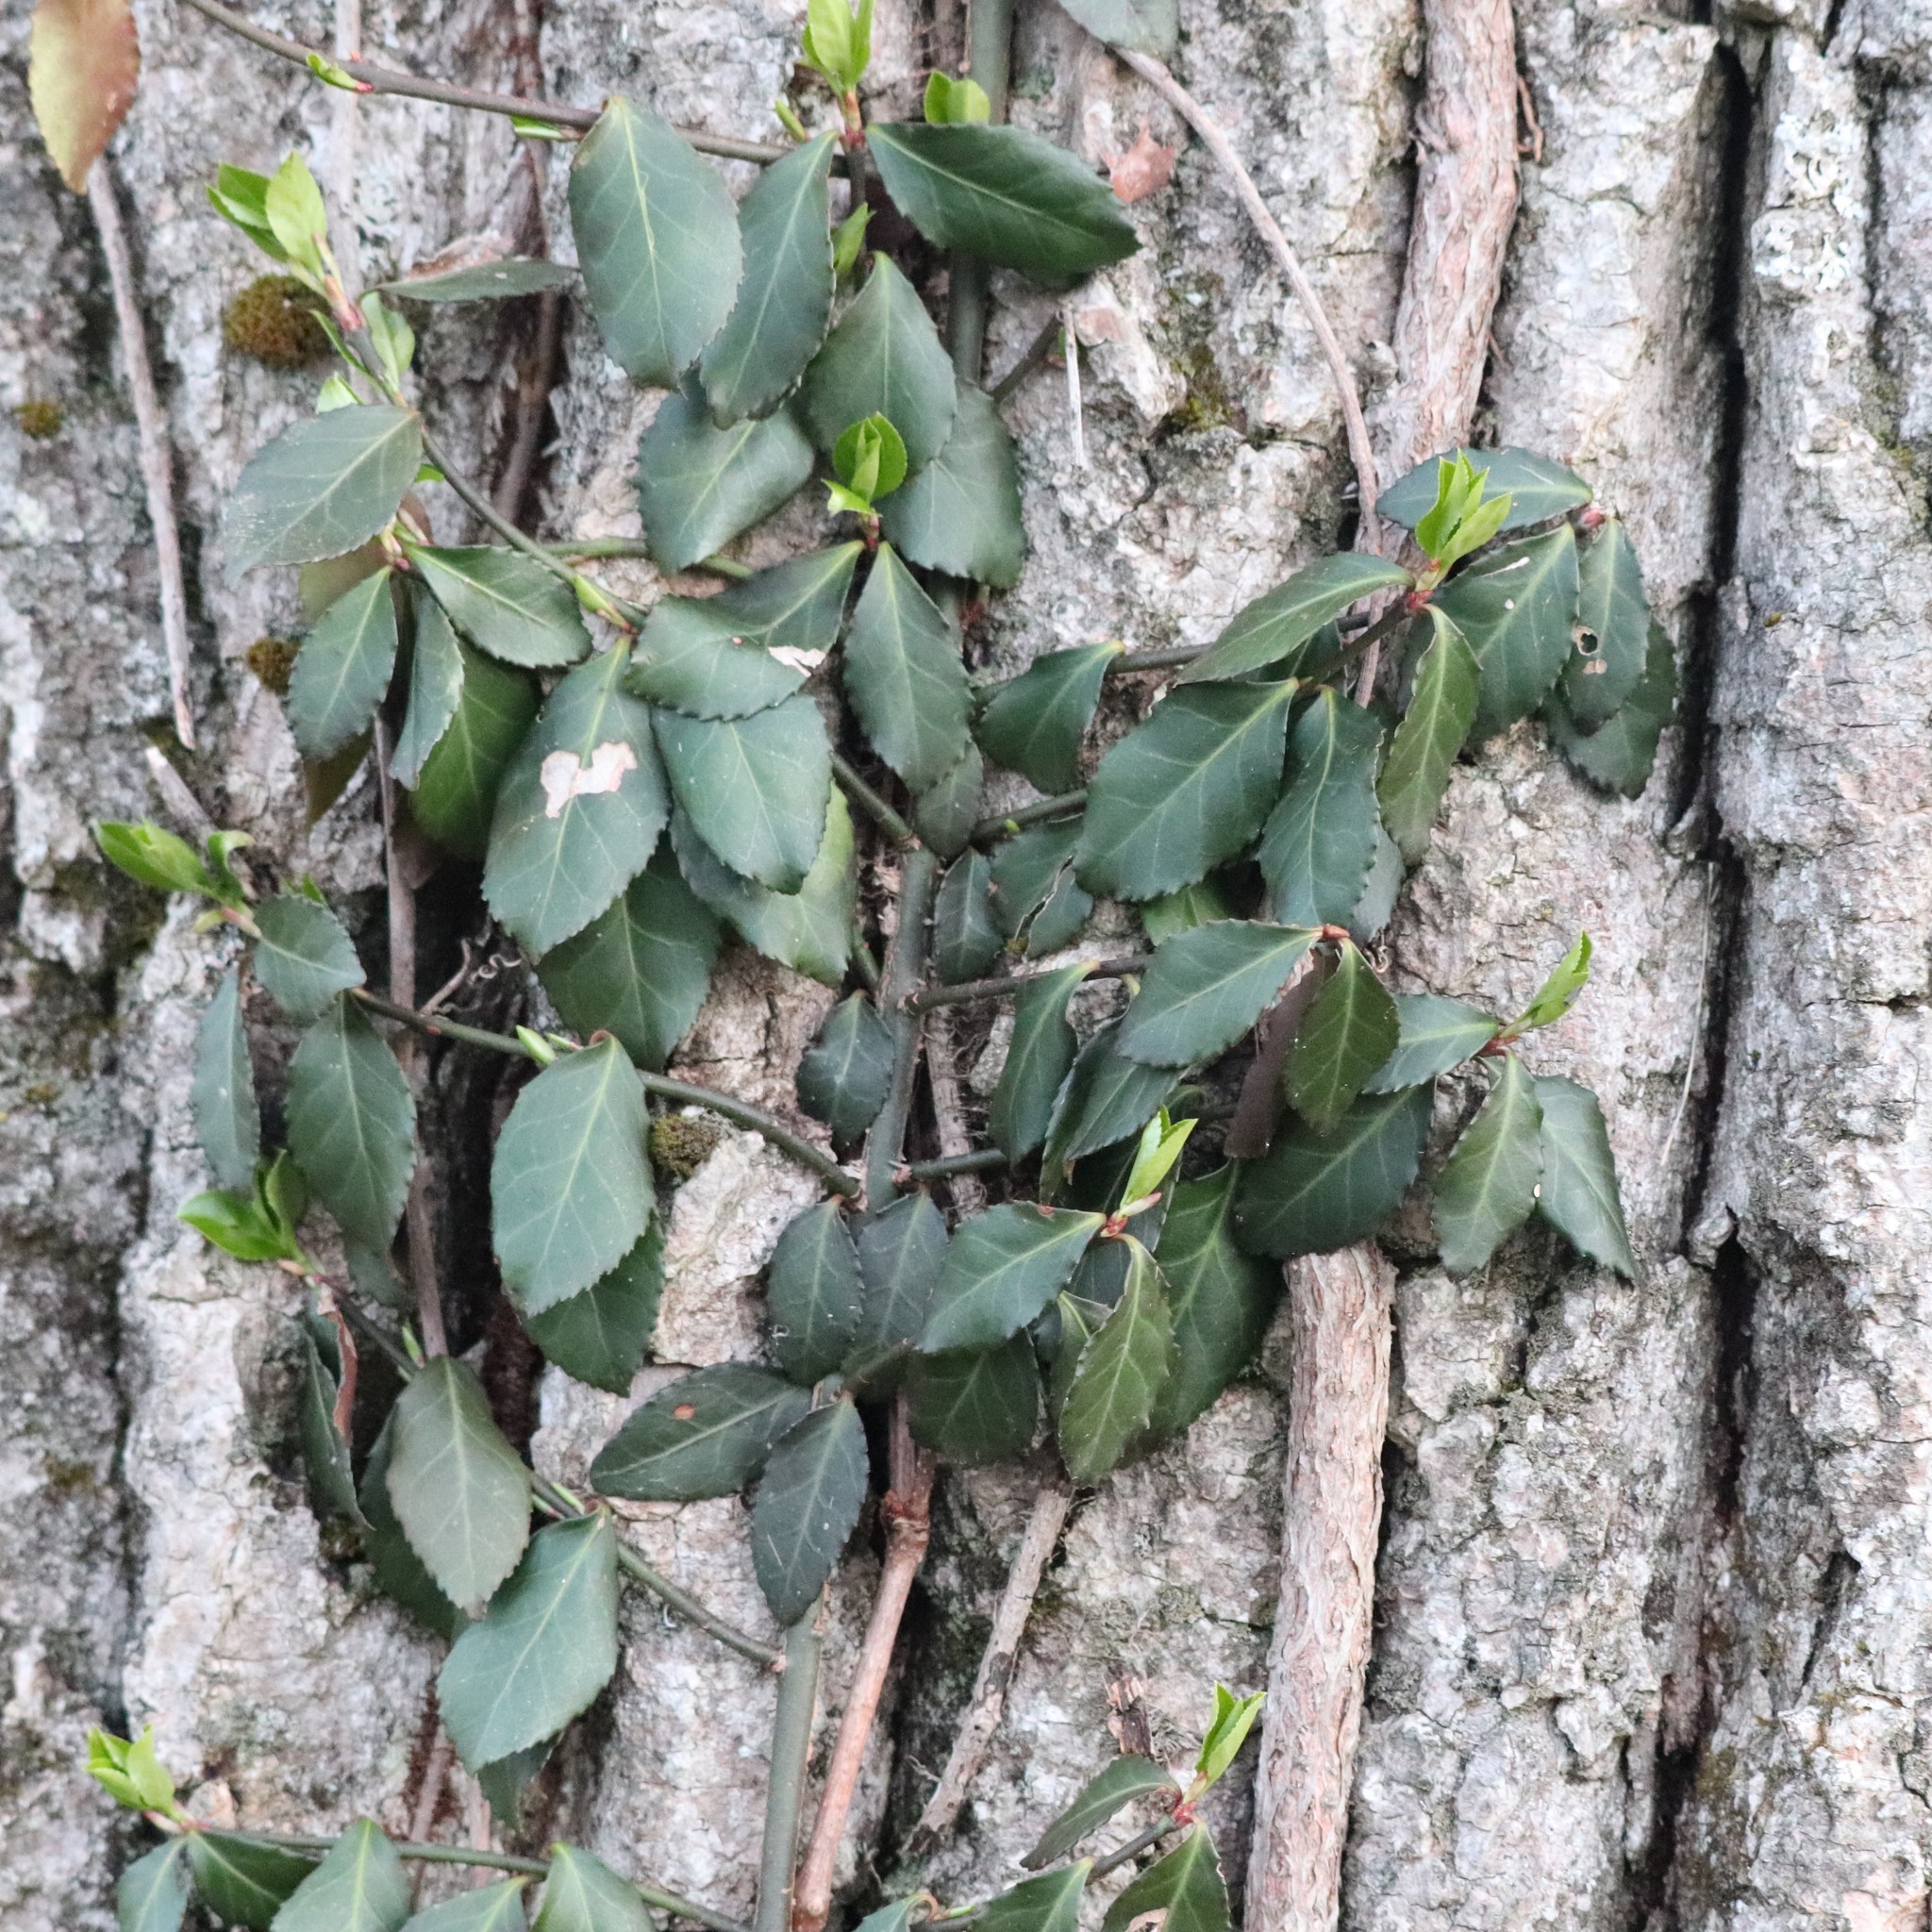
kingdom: Plantae
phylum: Tracheophyta
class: Magnoliopsida
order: Celastrales
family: Celastraceae
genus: Euonymus
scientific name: Euonymus fortunei
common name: Climbing euonymus
